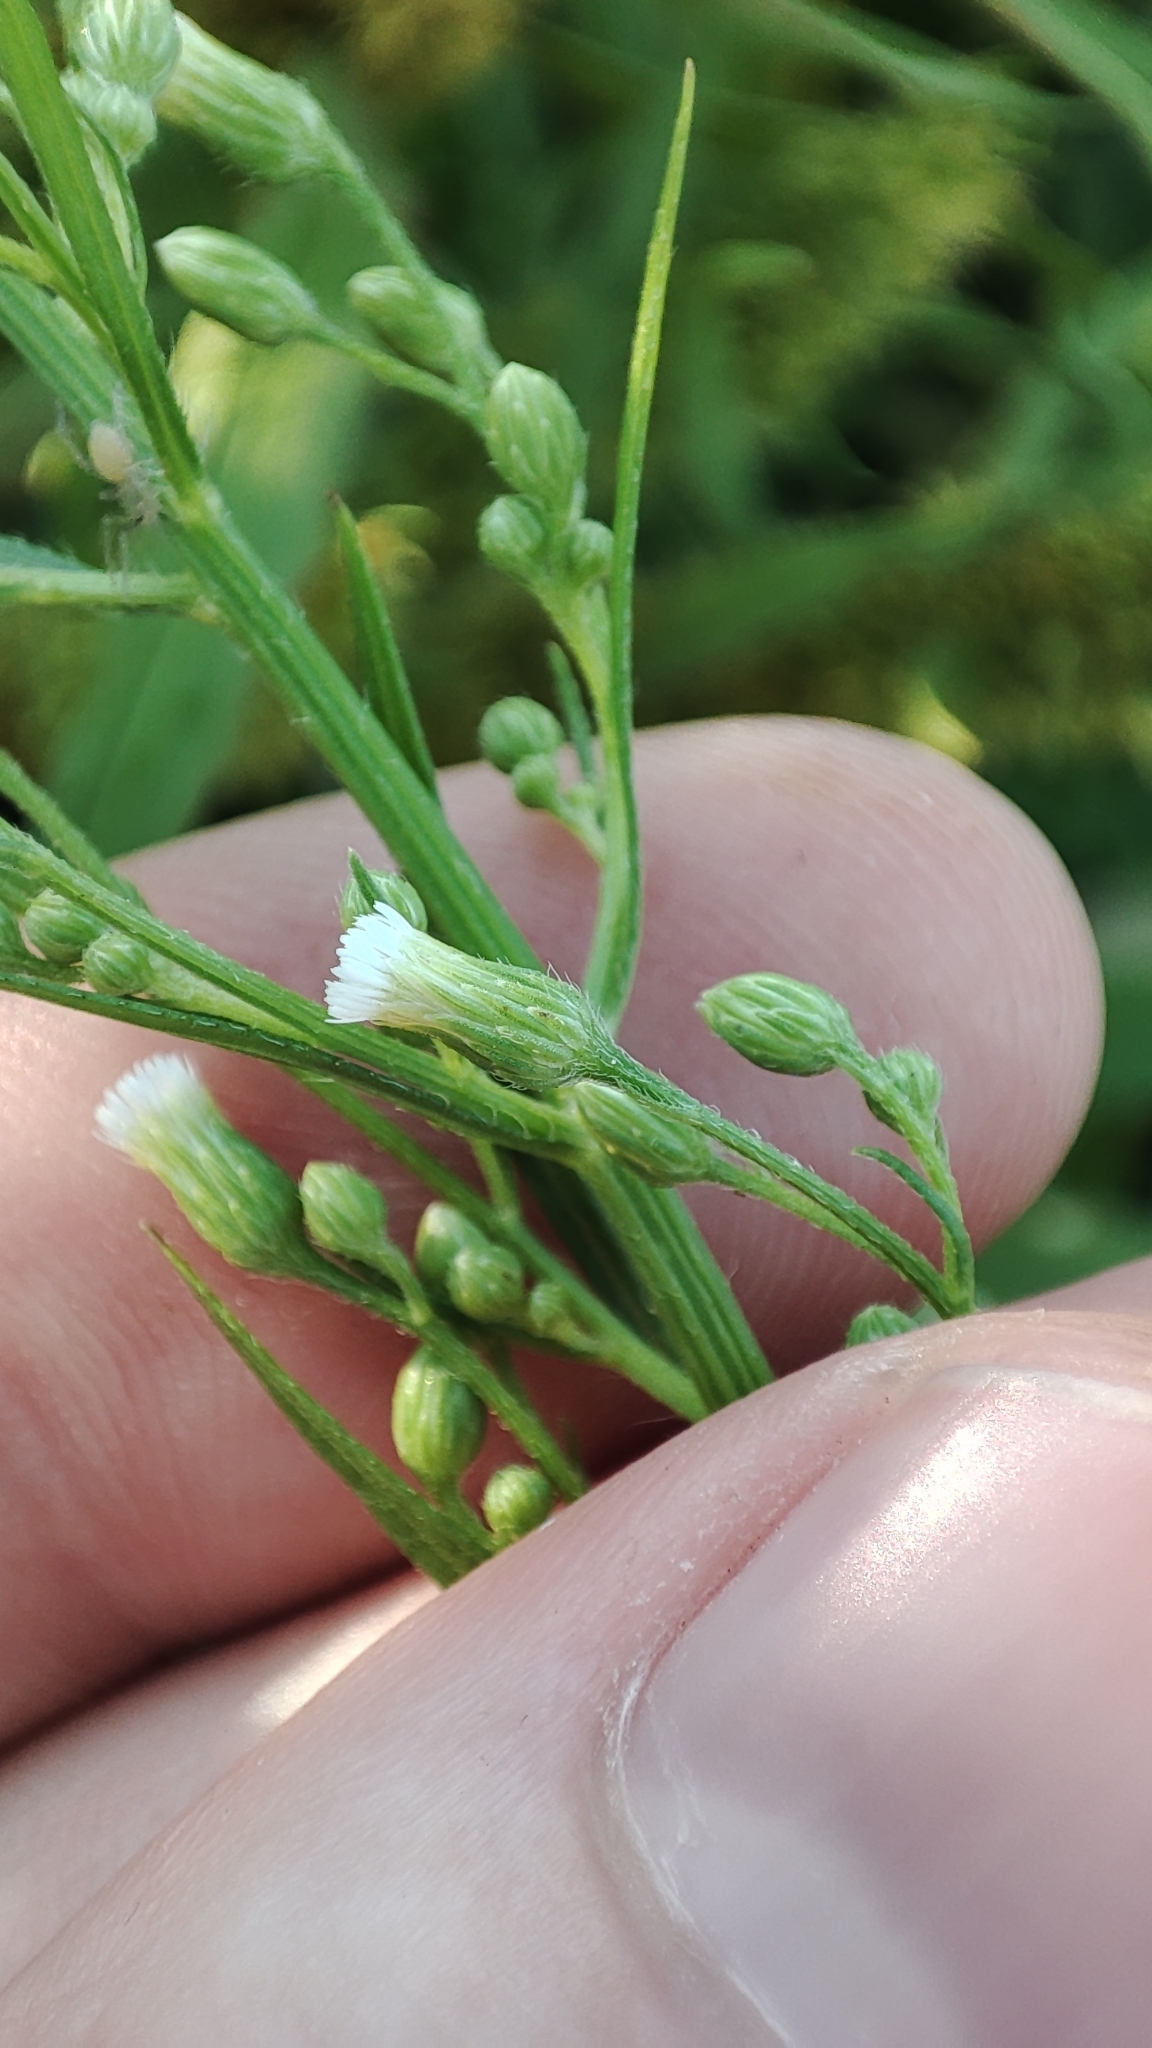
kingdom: Plantae
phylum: Tracheophyta
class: Magnoliopsida
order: Asterales
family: Asteraceae
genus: Erigeron
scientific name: Erigeron canadensis
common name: Canadian fleabane
